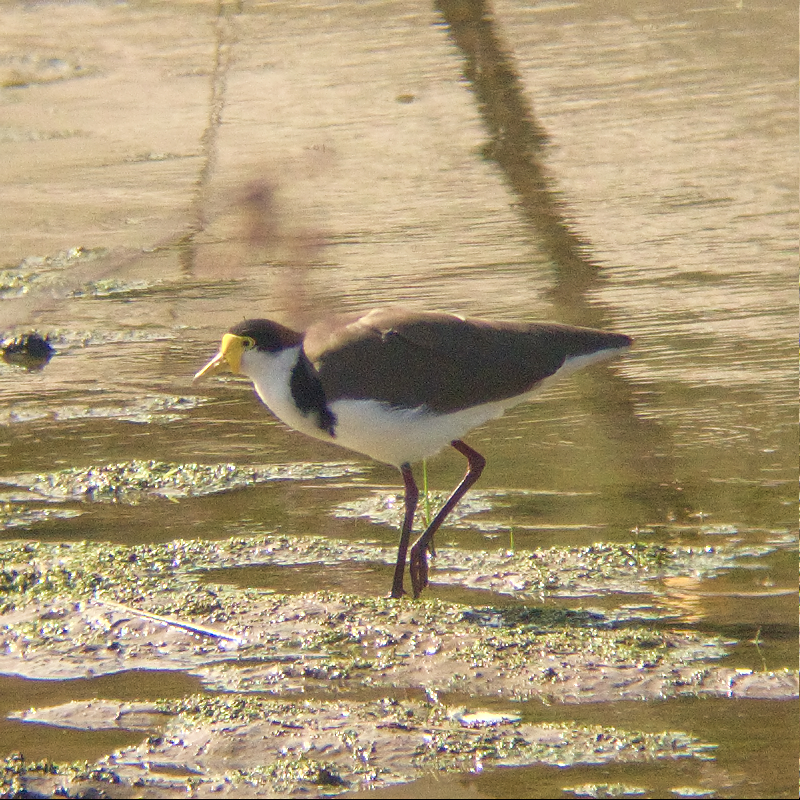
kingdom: Animalia
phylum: Chordata
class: Aves
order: Charadriiformes
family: Charadriidae
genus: Vanellus
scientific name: Vanellus miles
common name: Masked lapwing
